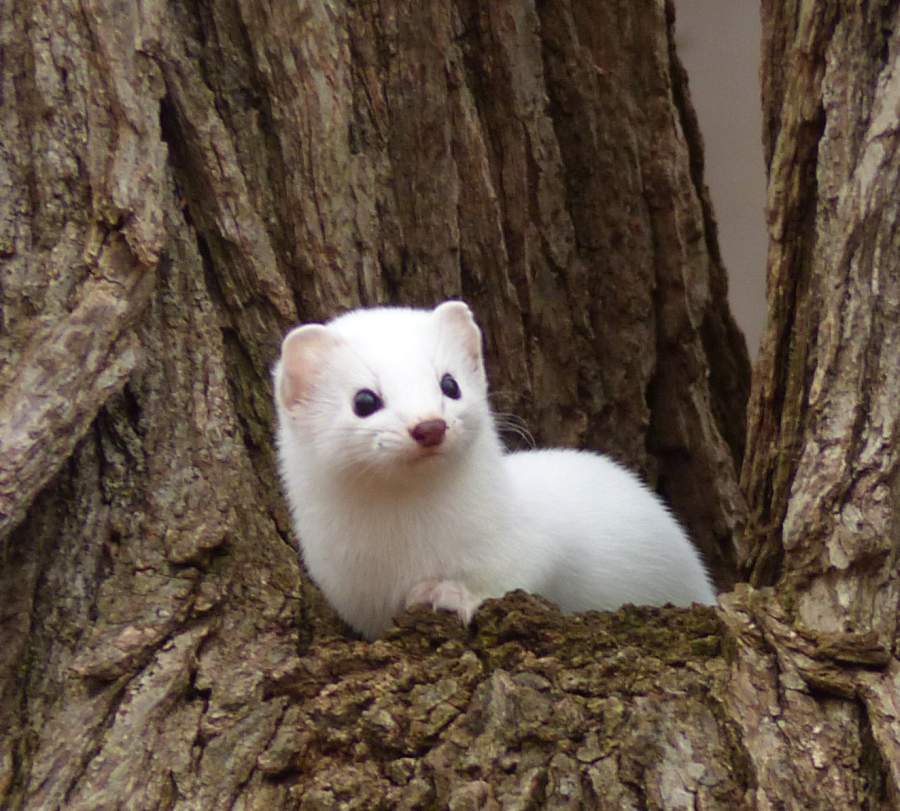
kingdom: Animalia
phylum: Chordata
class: Mammalia
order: Carnivora
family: Mustelidae
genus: Mustela
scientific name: Mustela erminea
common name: Stoat
